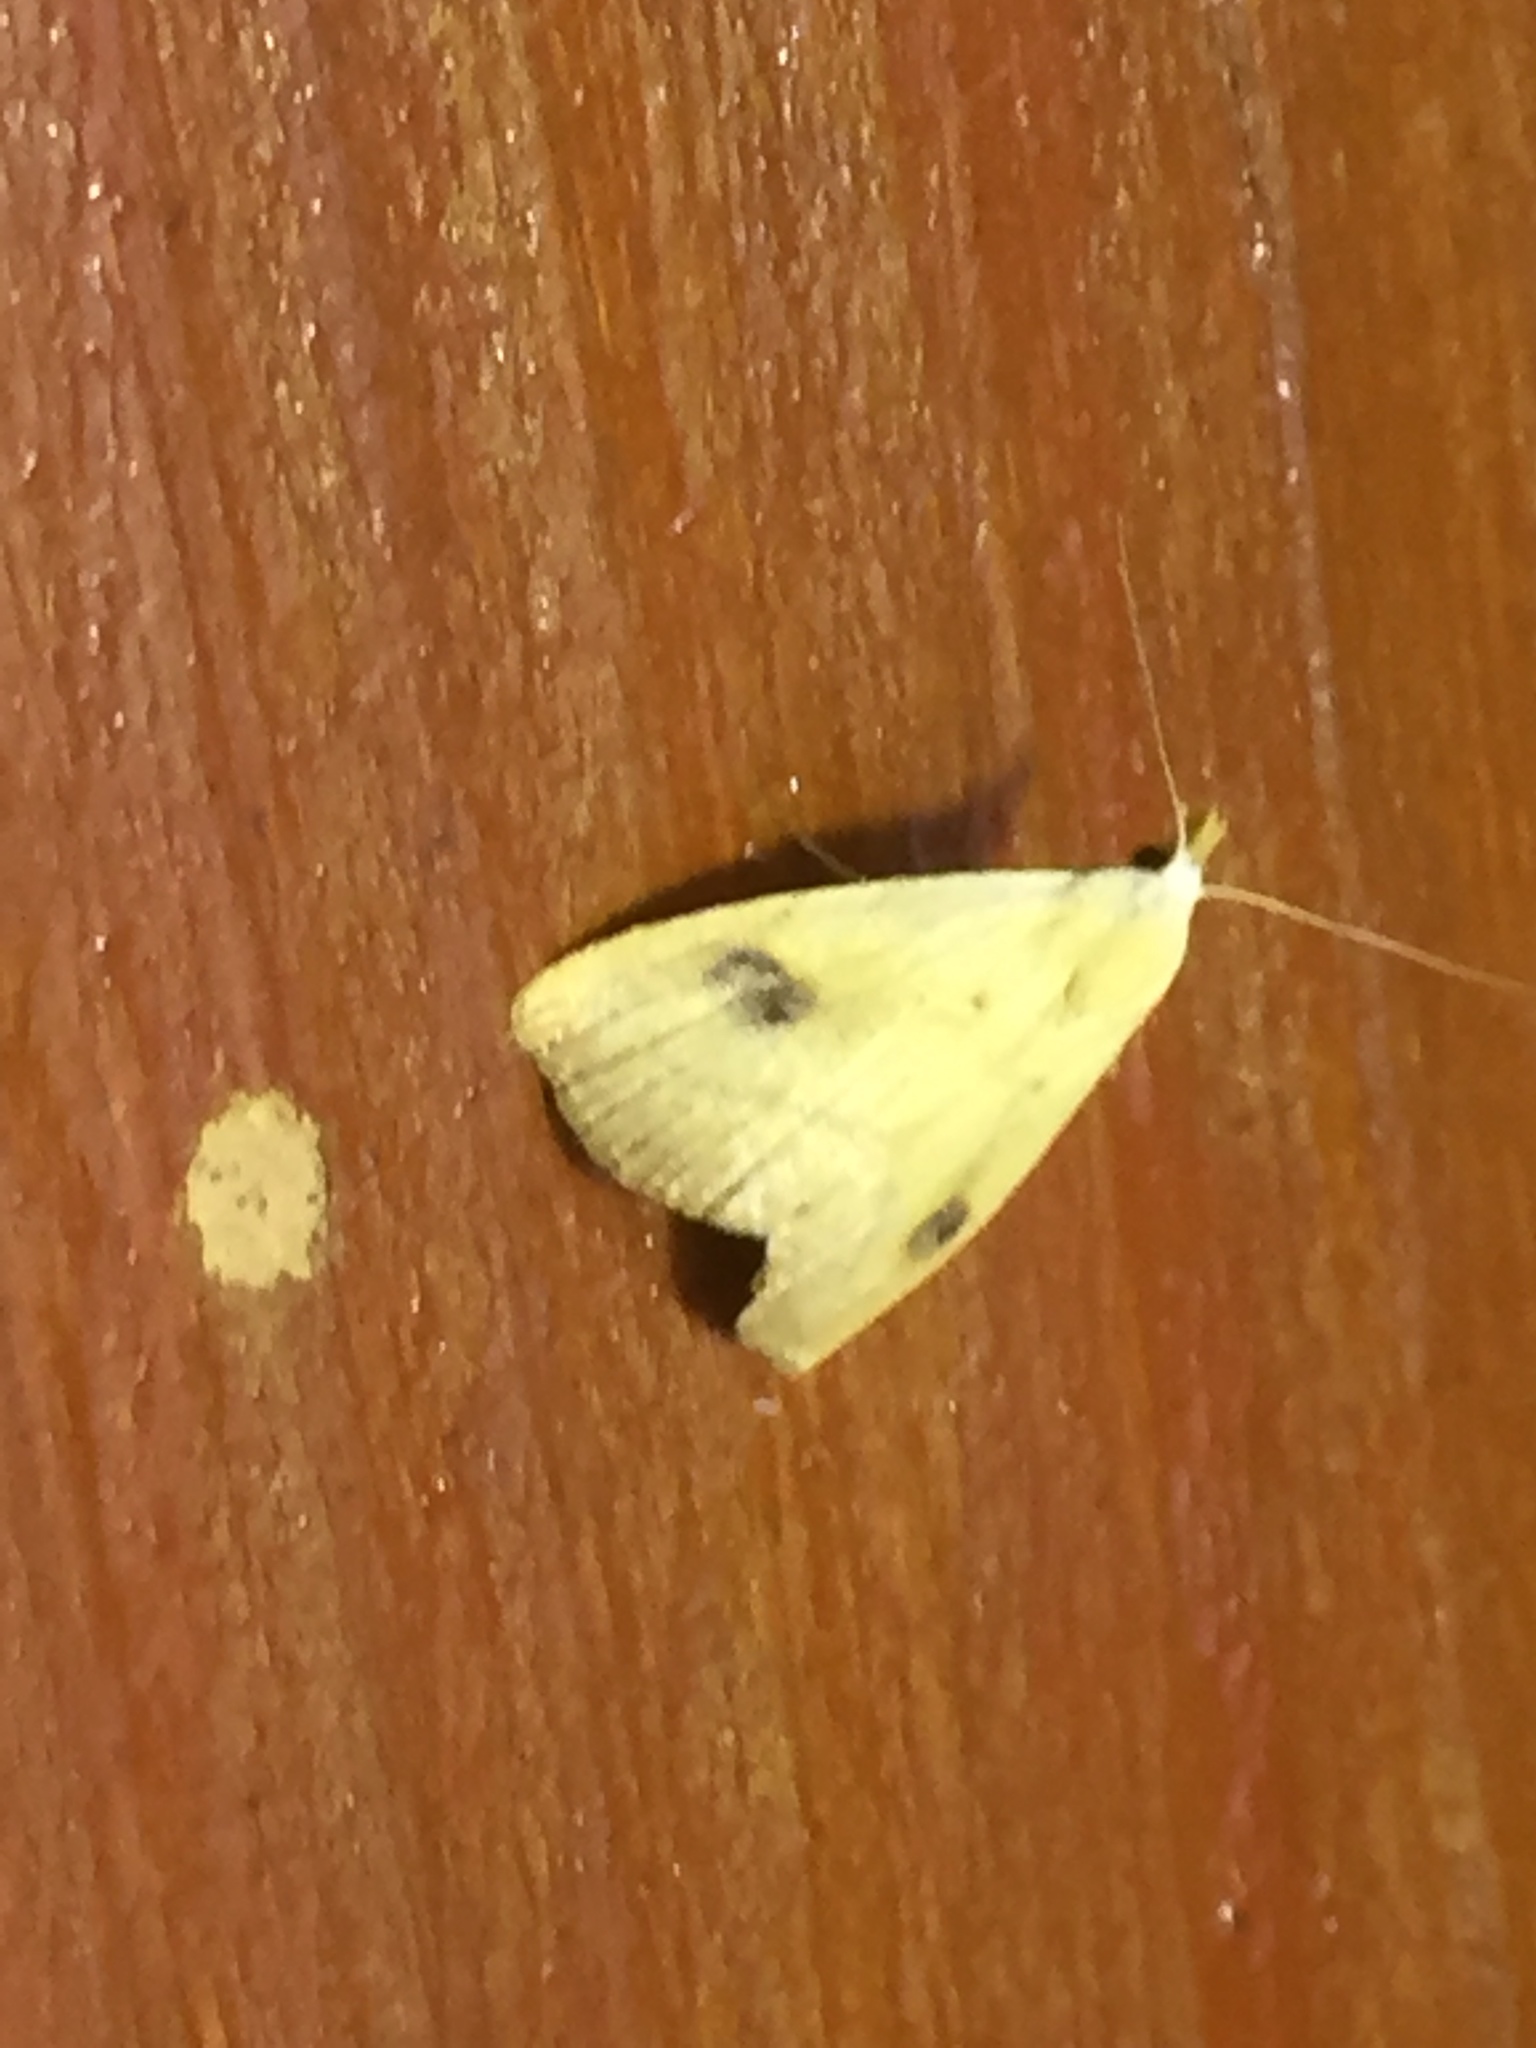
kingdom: Animalia
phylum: Arthropoda
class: Insecta
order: Lepidoptera
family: Erebidae
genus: Rivula
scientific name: Rivula sericealis
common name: Straw dot
